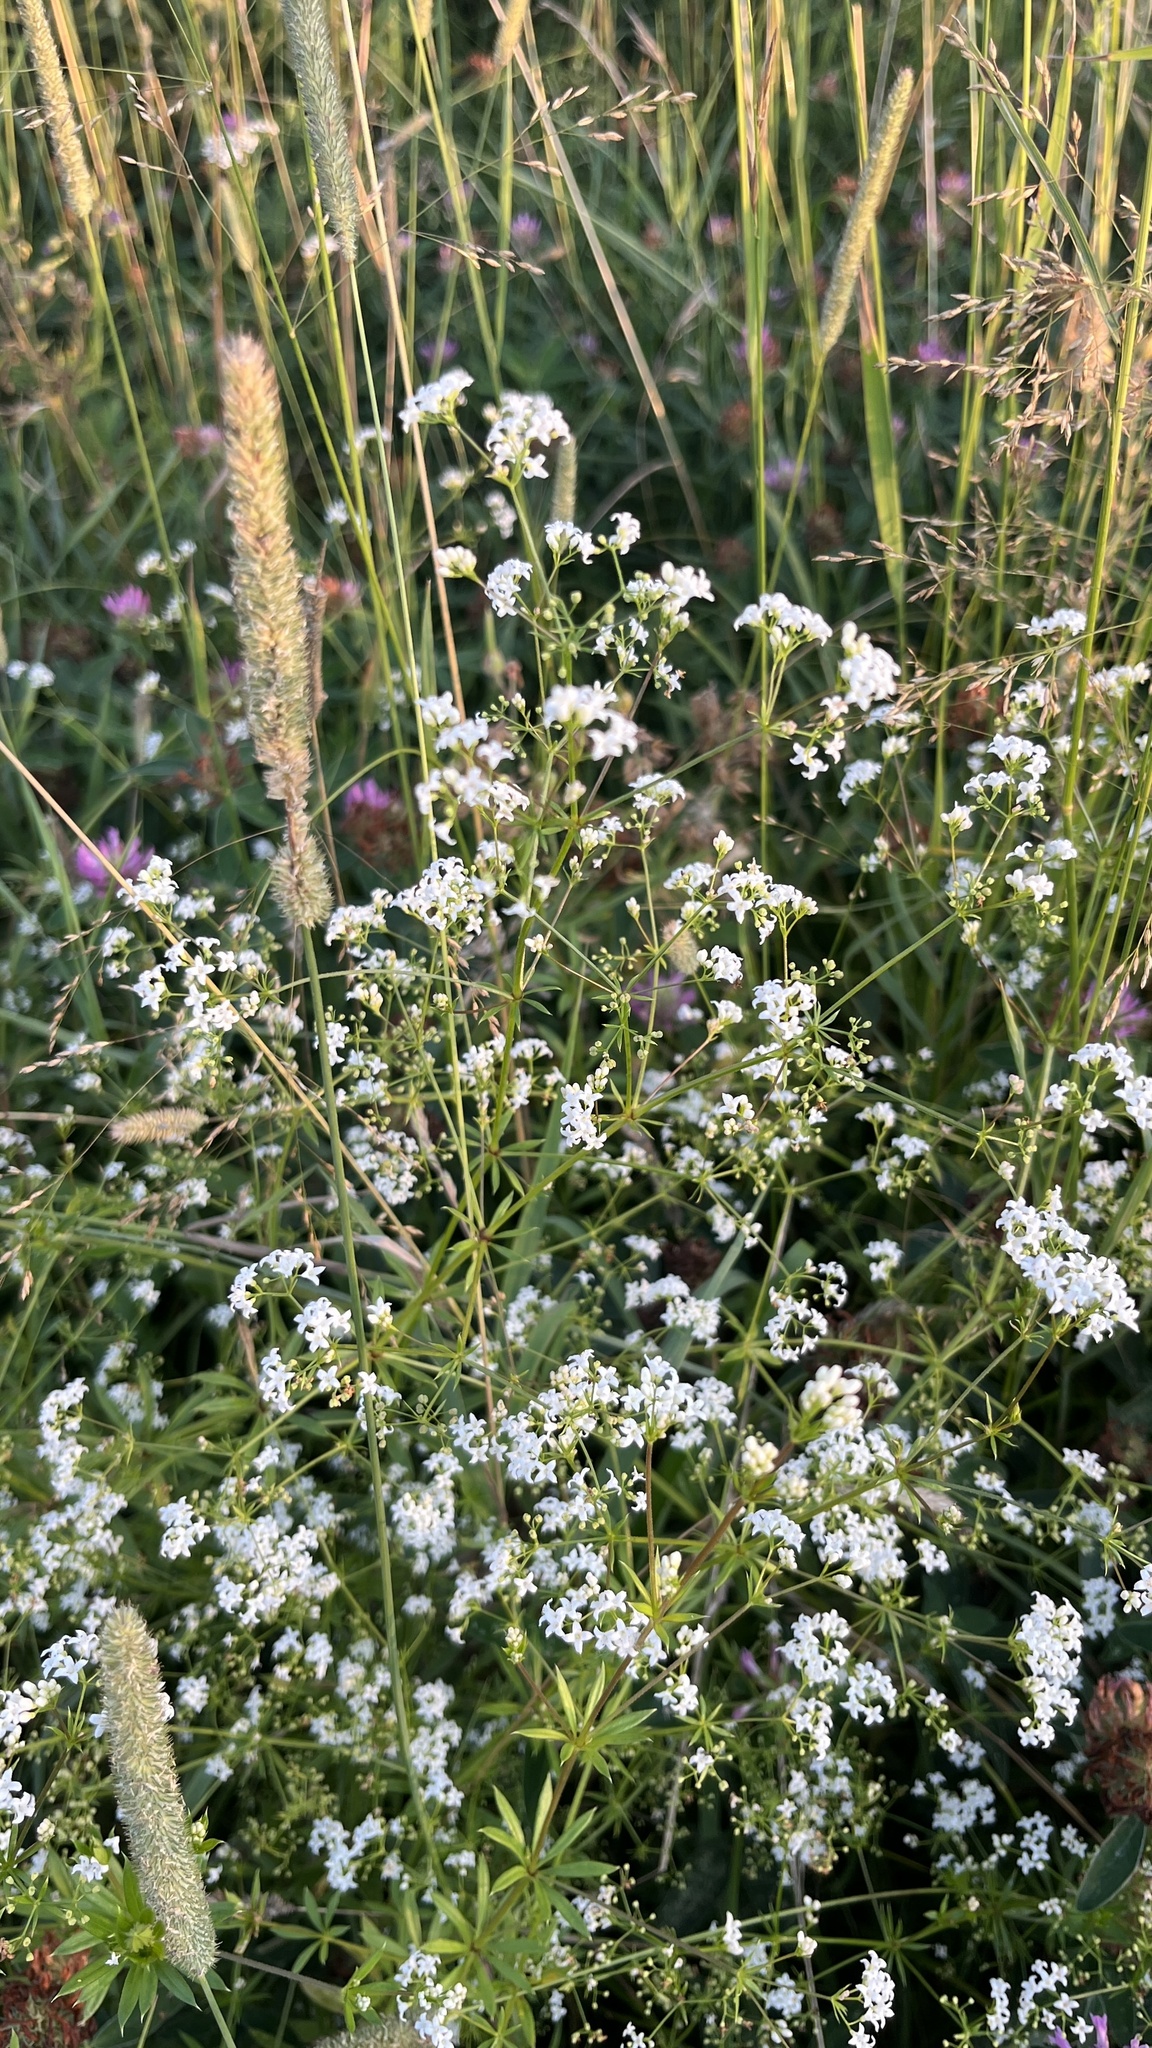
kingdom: Plantae
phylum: Tracheophyta
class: Magnoliopsida
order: Gentianales
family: Rubiaceae
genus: Galium
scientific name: Galium rivale
